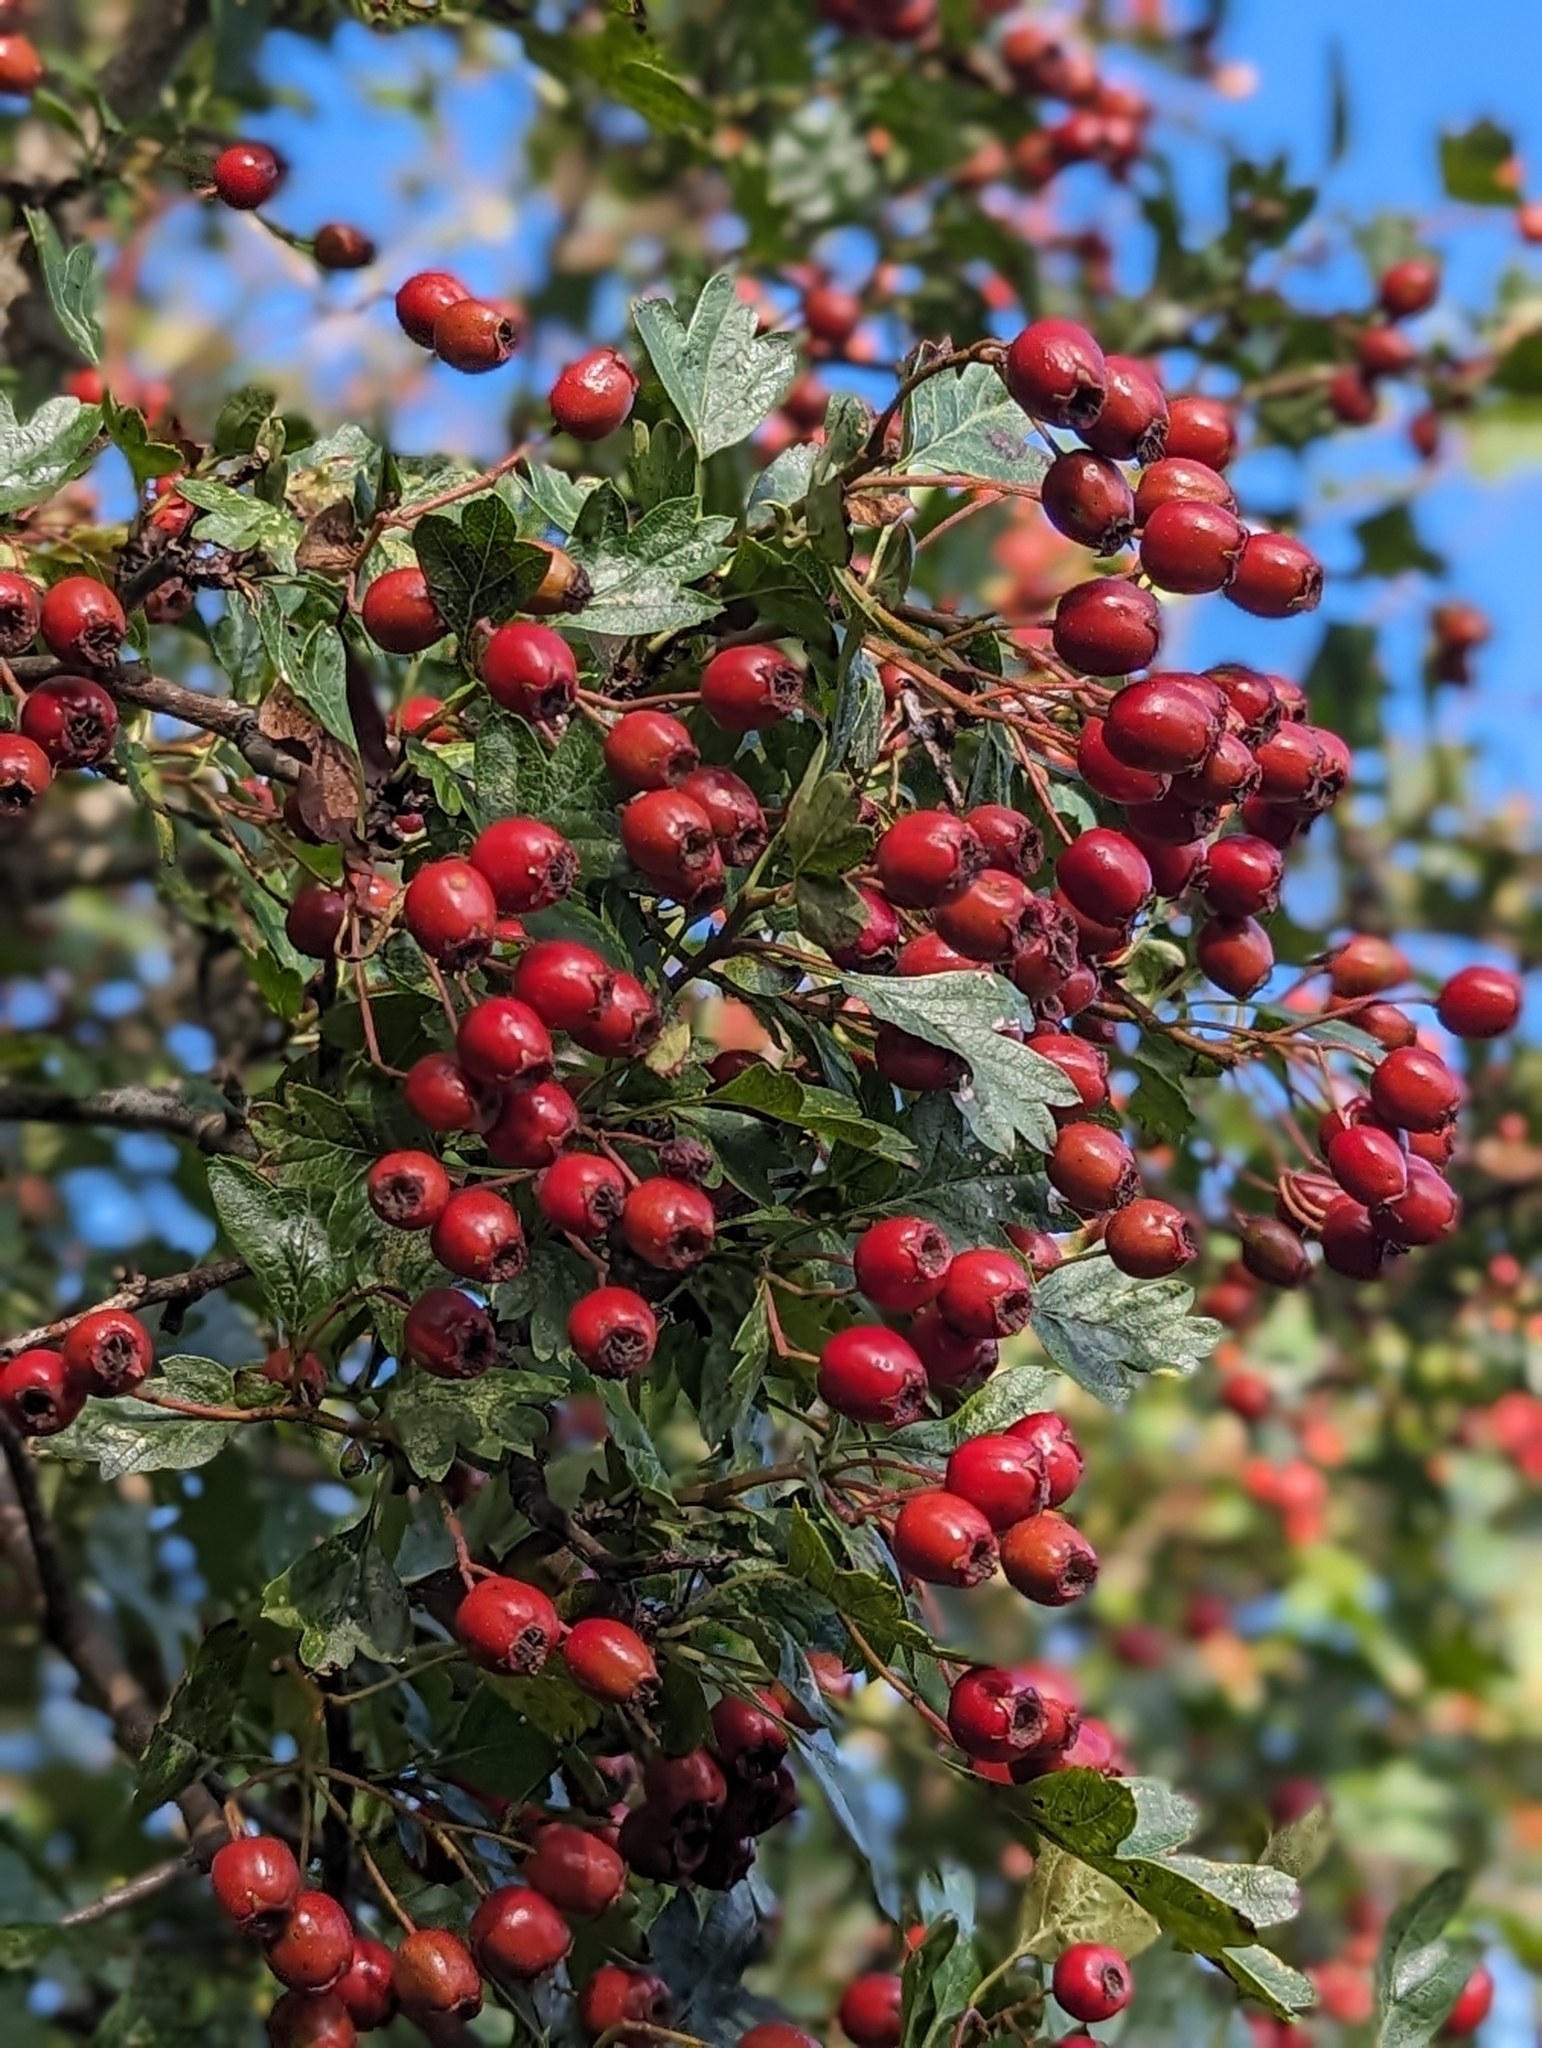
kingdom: Plantae
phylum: Tracheophyta
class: Magnoliopsida
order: Rosales
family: Rosaceae
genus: Crataegus
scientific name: Crataegus monogyna
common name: Hawthorn
